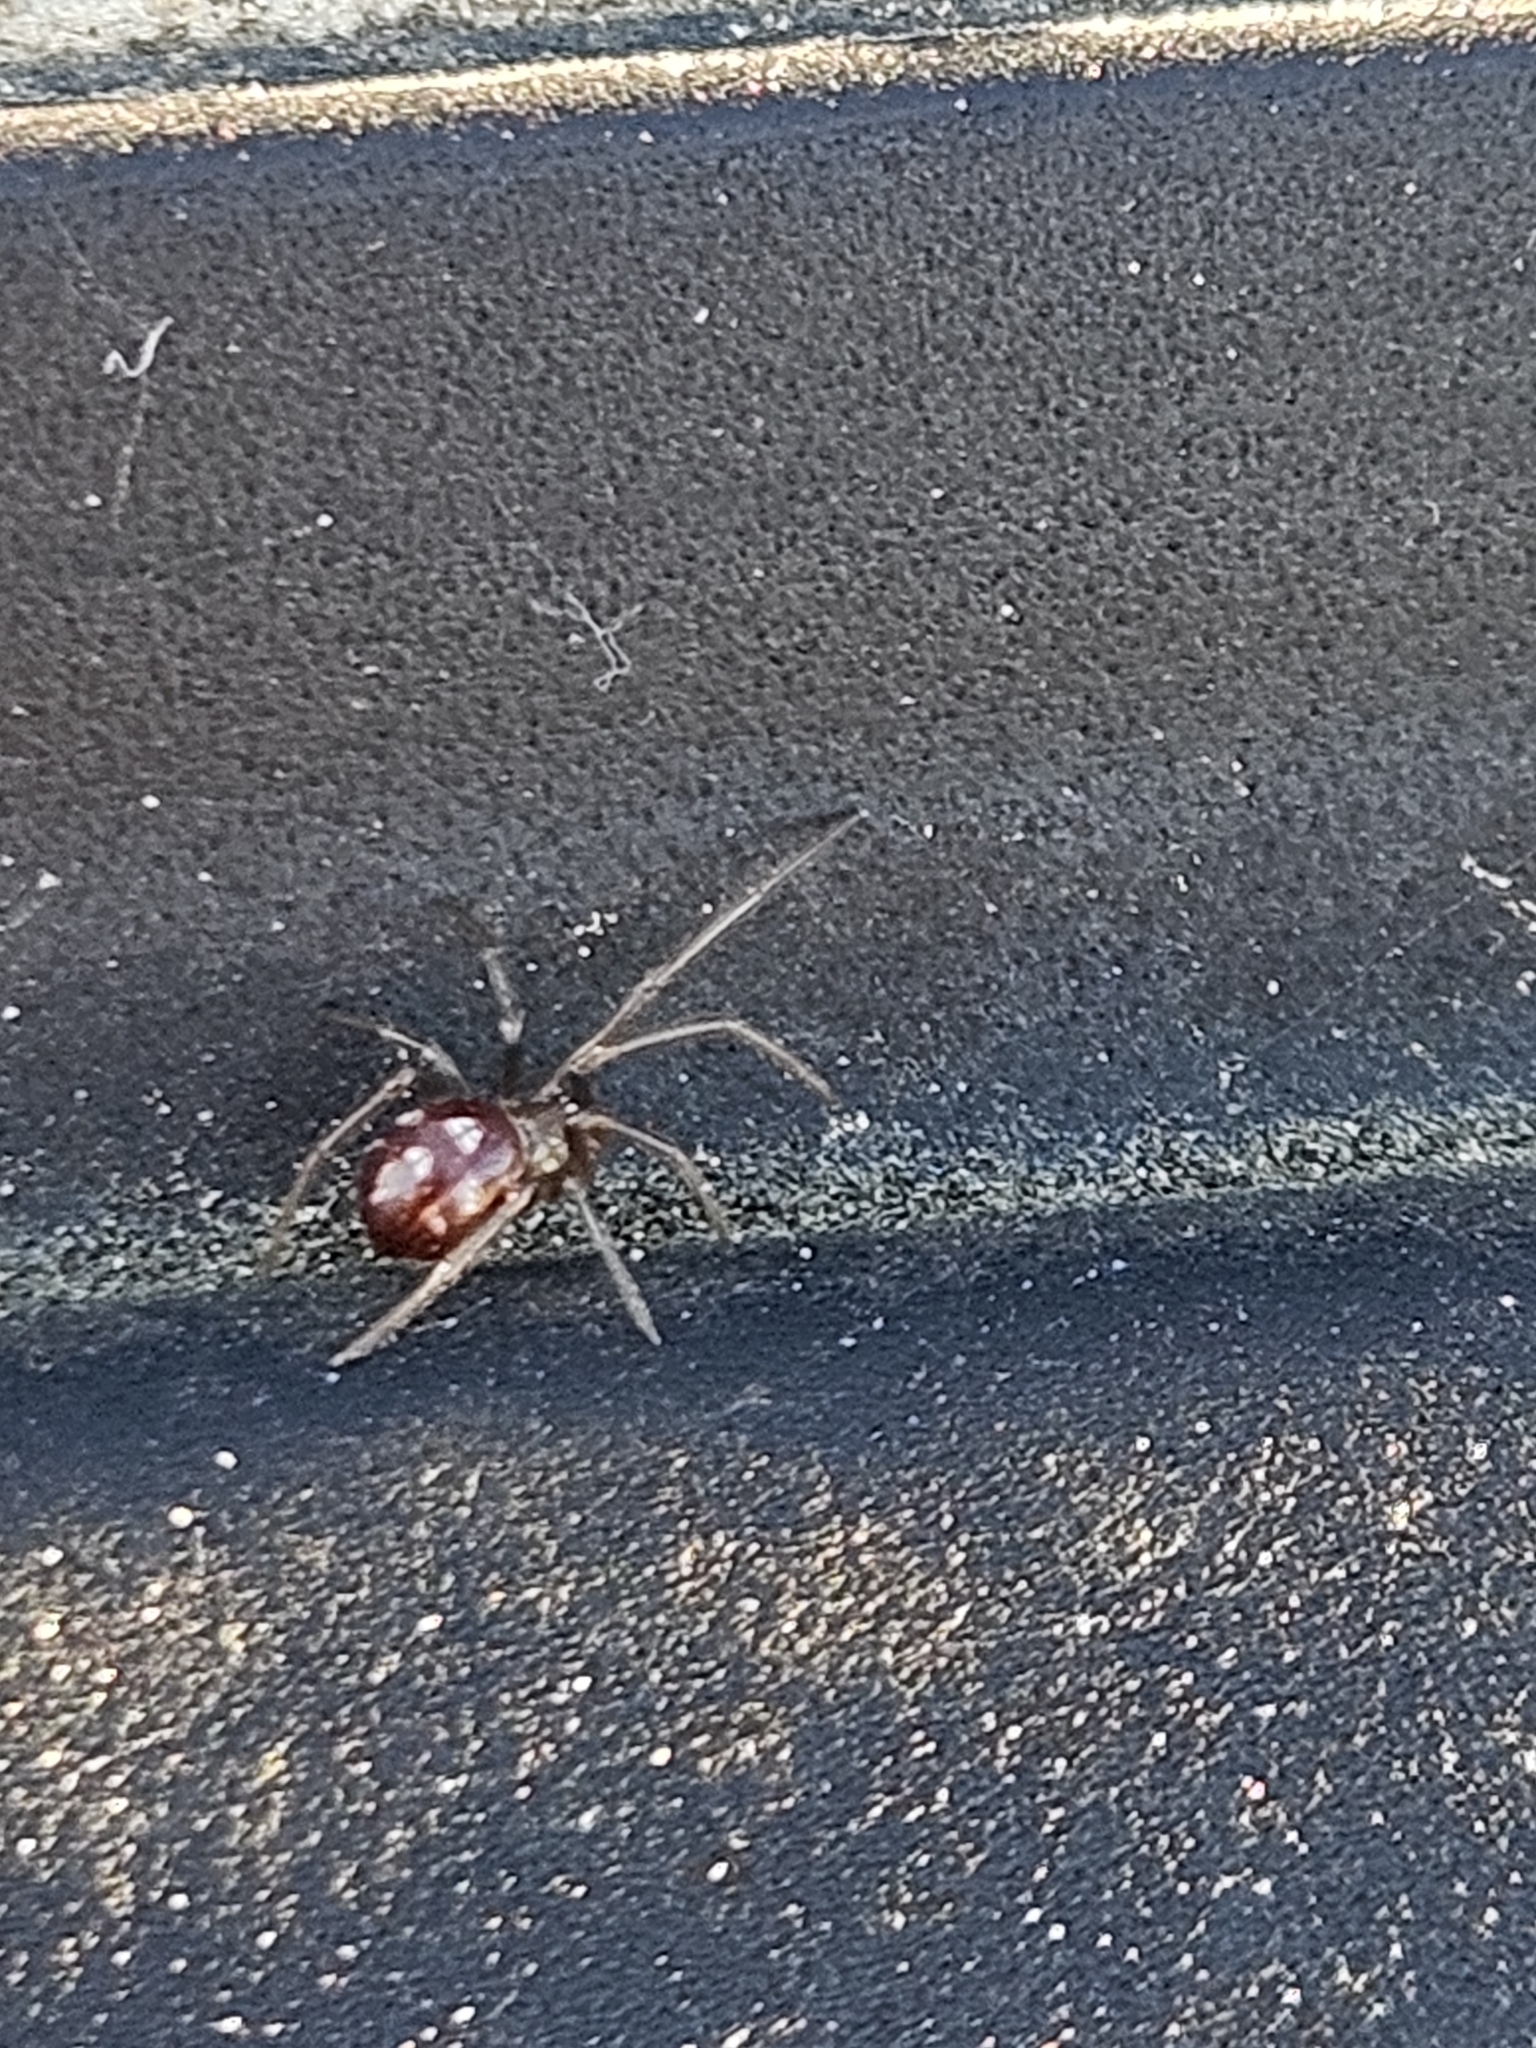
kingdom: Animalia
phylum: Arthropoda
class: Arachnida
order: Araneae
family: Theridiidae
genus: Steatoda
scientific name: Steatoda grossa
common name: False black widow
